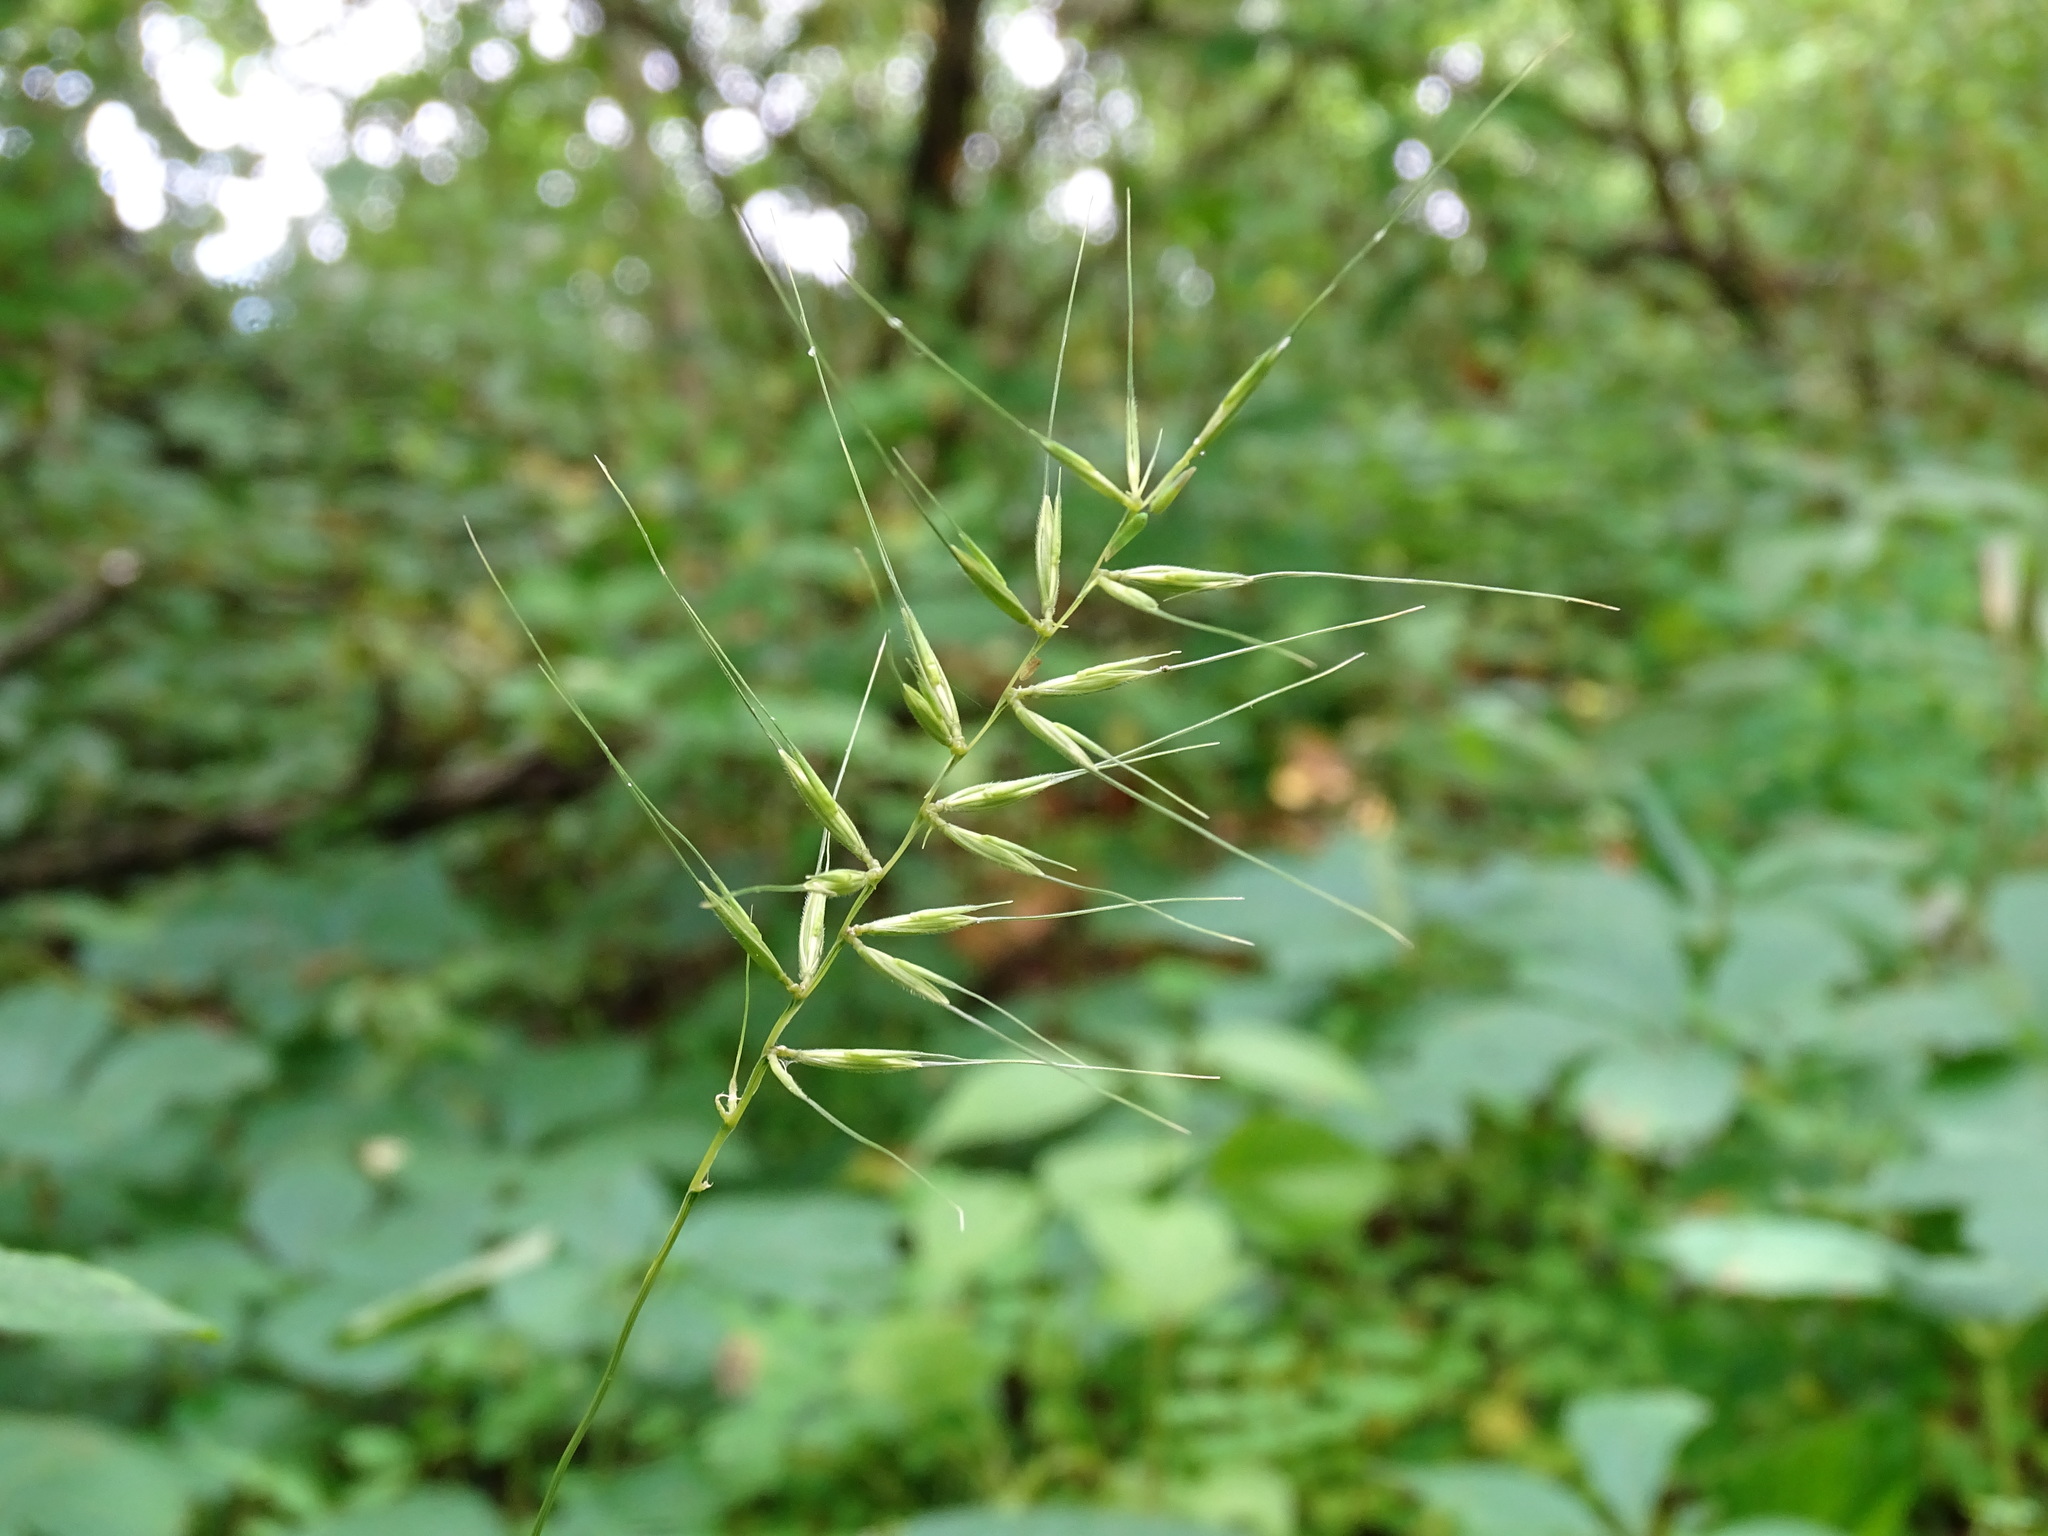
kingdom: Plantae
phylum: Tracheophyta
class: Liliopsida
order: Poales
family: Poaceae
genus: Elymus
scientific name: Elymus hystrix
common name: Bottlebrush grass
